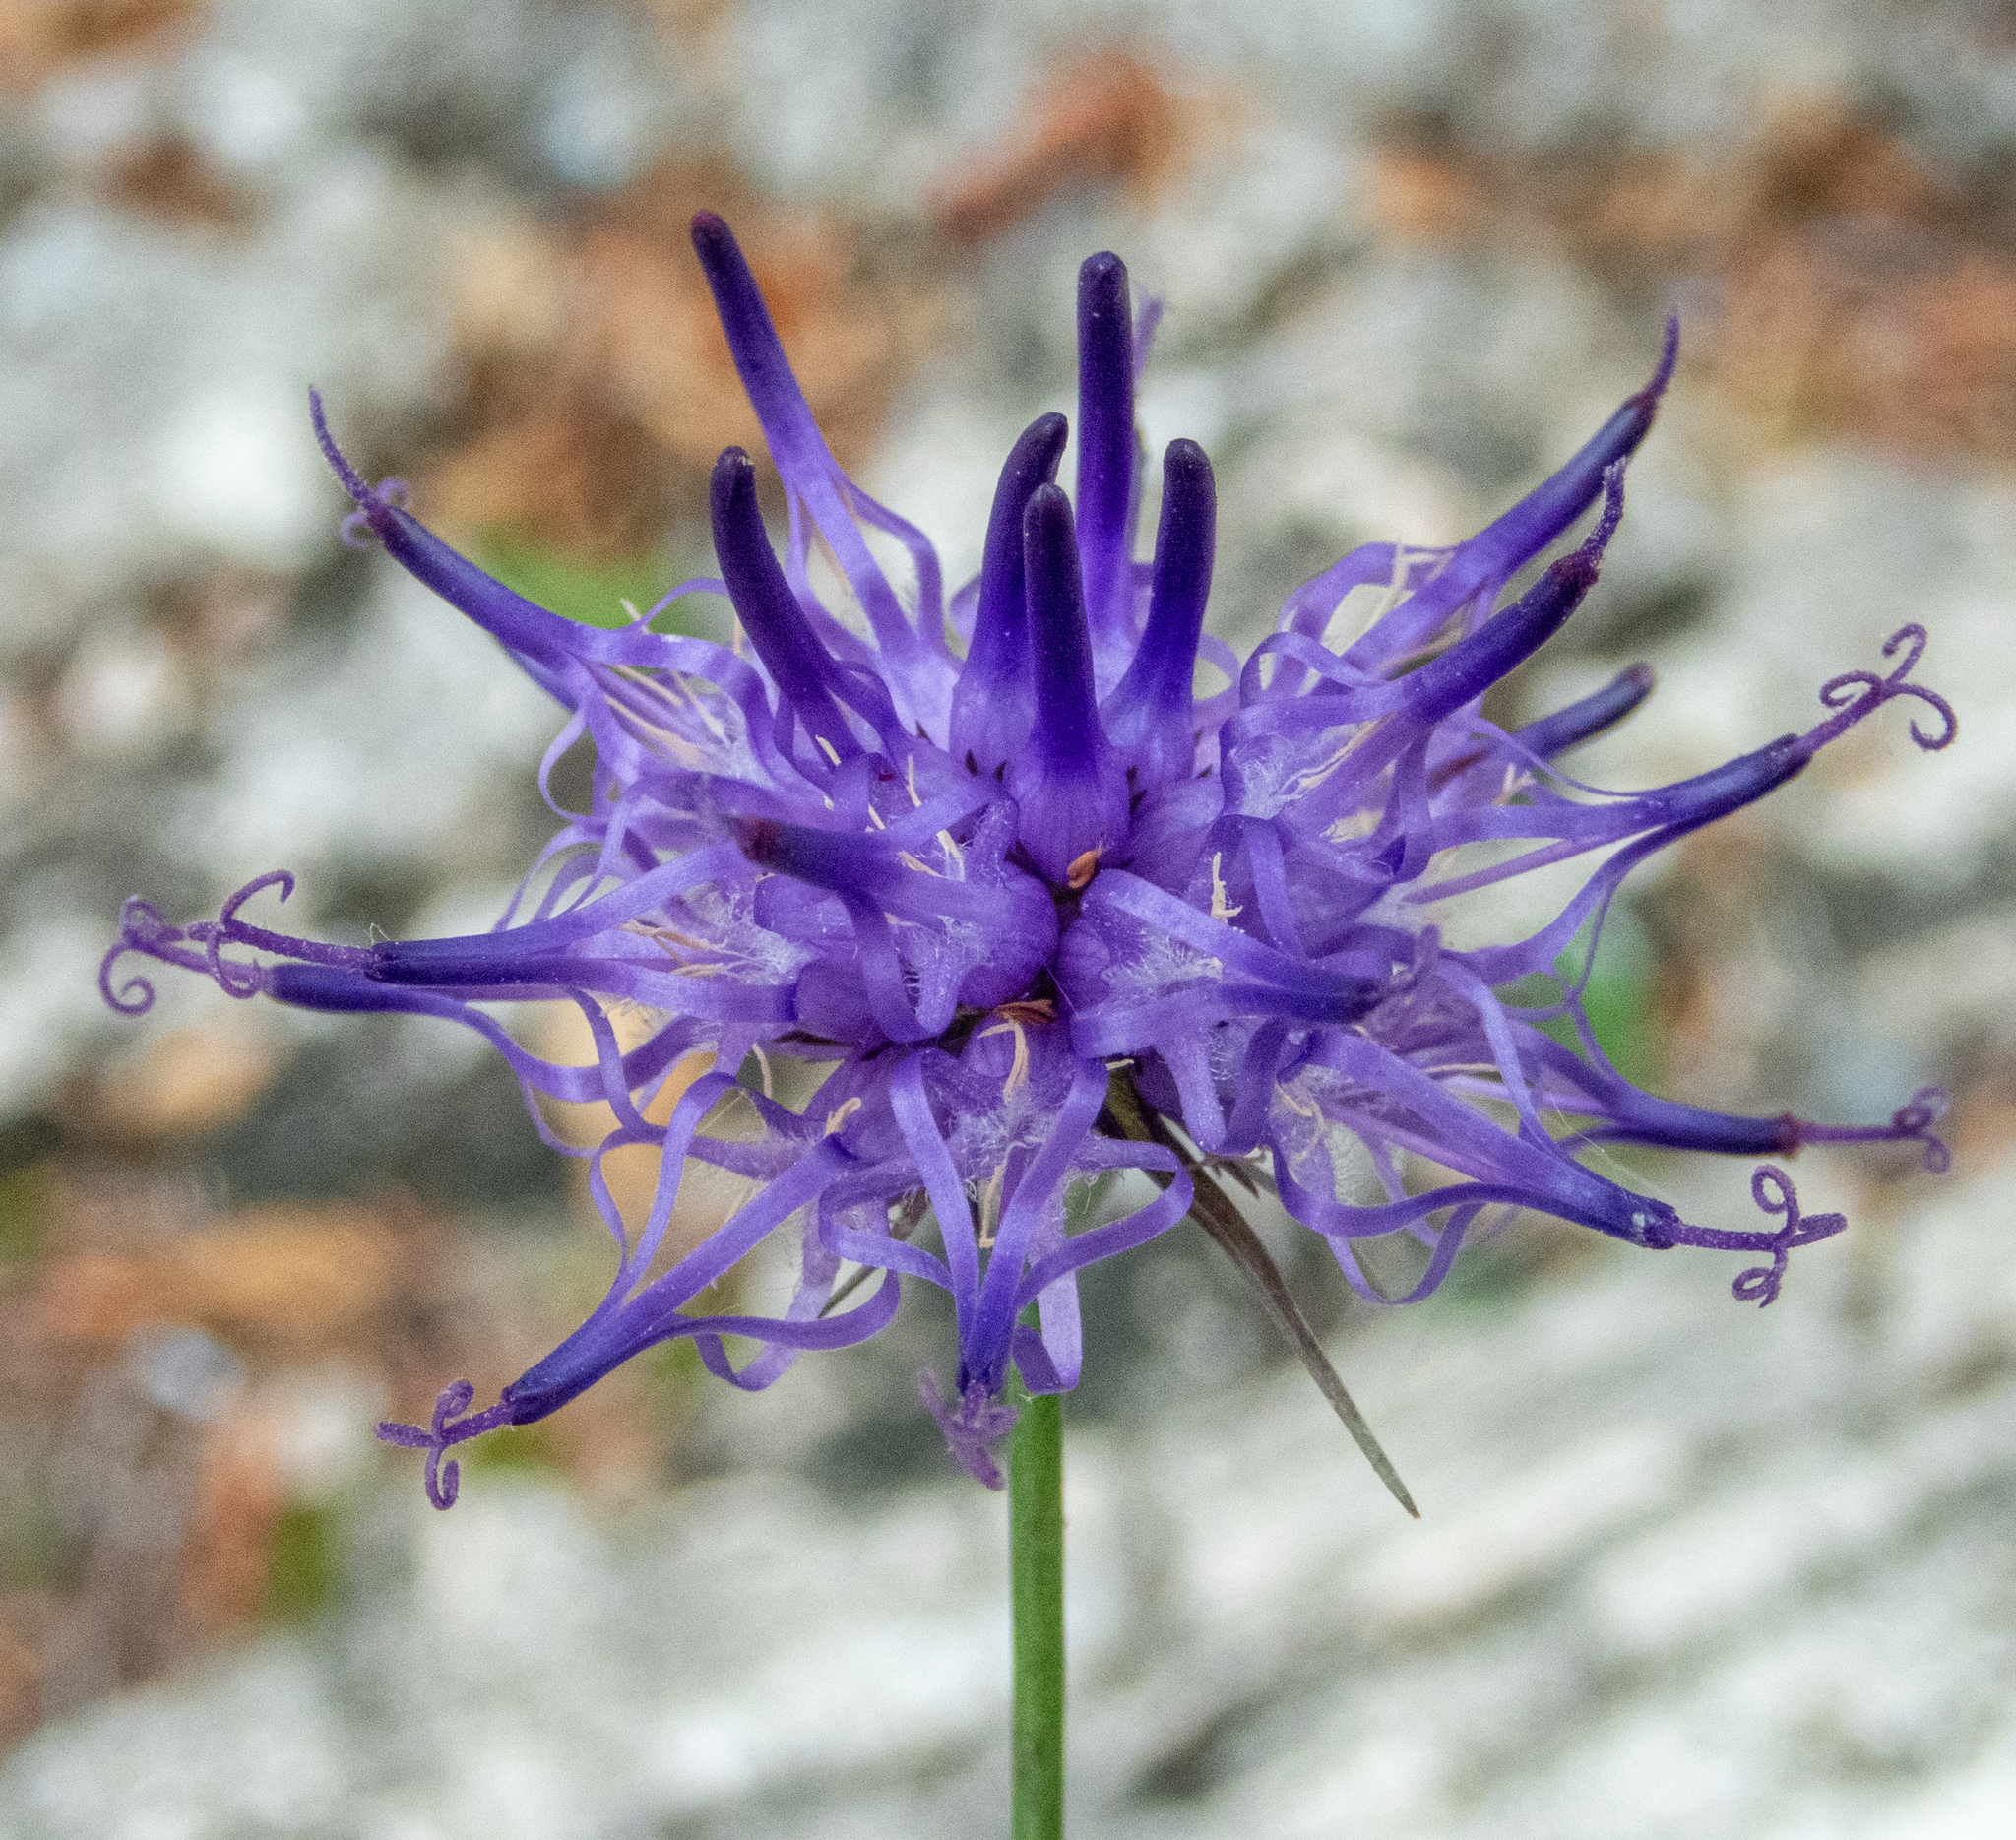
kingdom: Plantae
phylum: Tracheophyta
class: Magnoliopsida
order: Asterales
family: Campanulaceae
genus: Phyteuma
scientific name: Phyteuma scheuchzeri
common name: Oxford rampion
